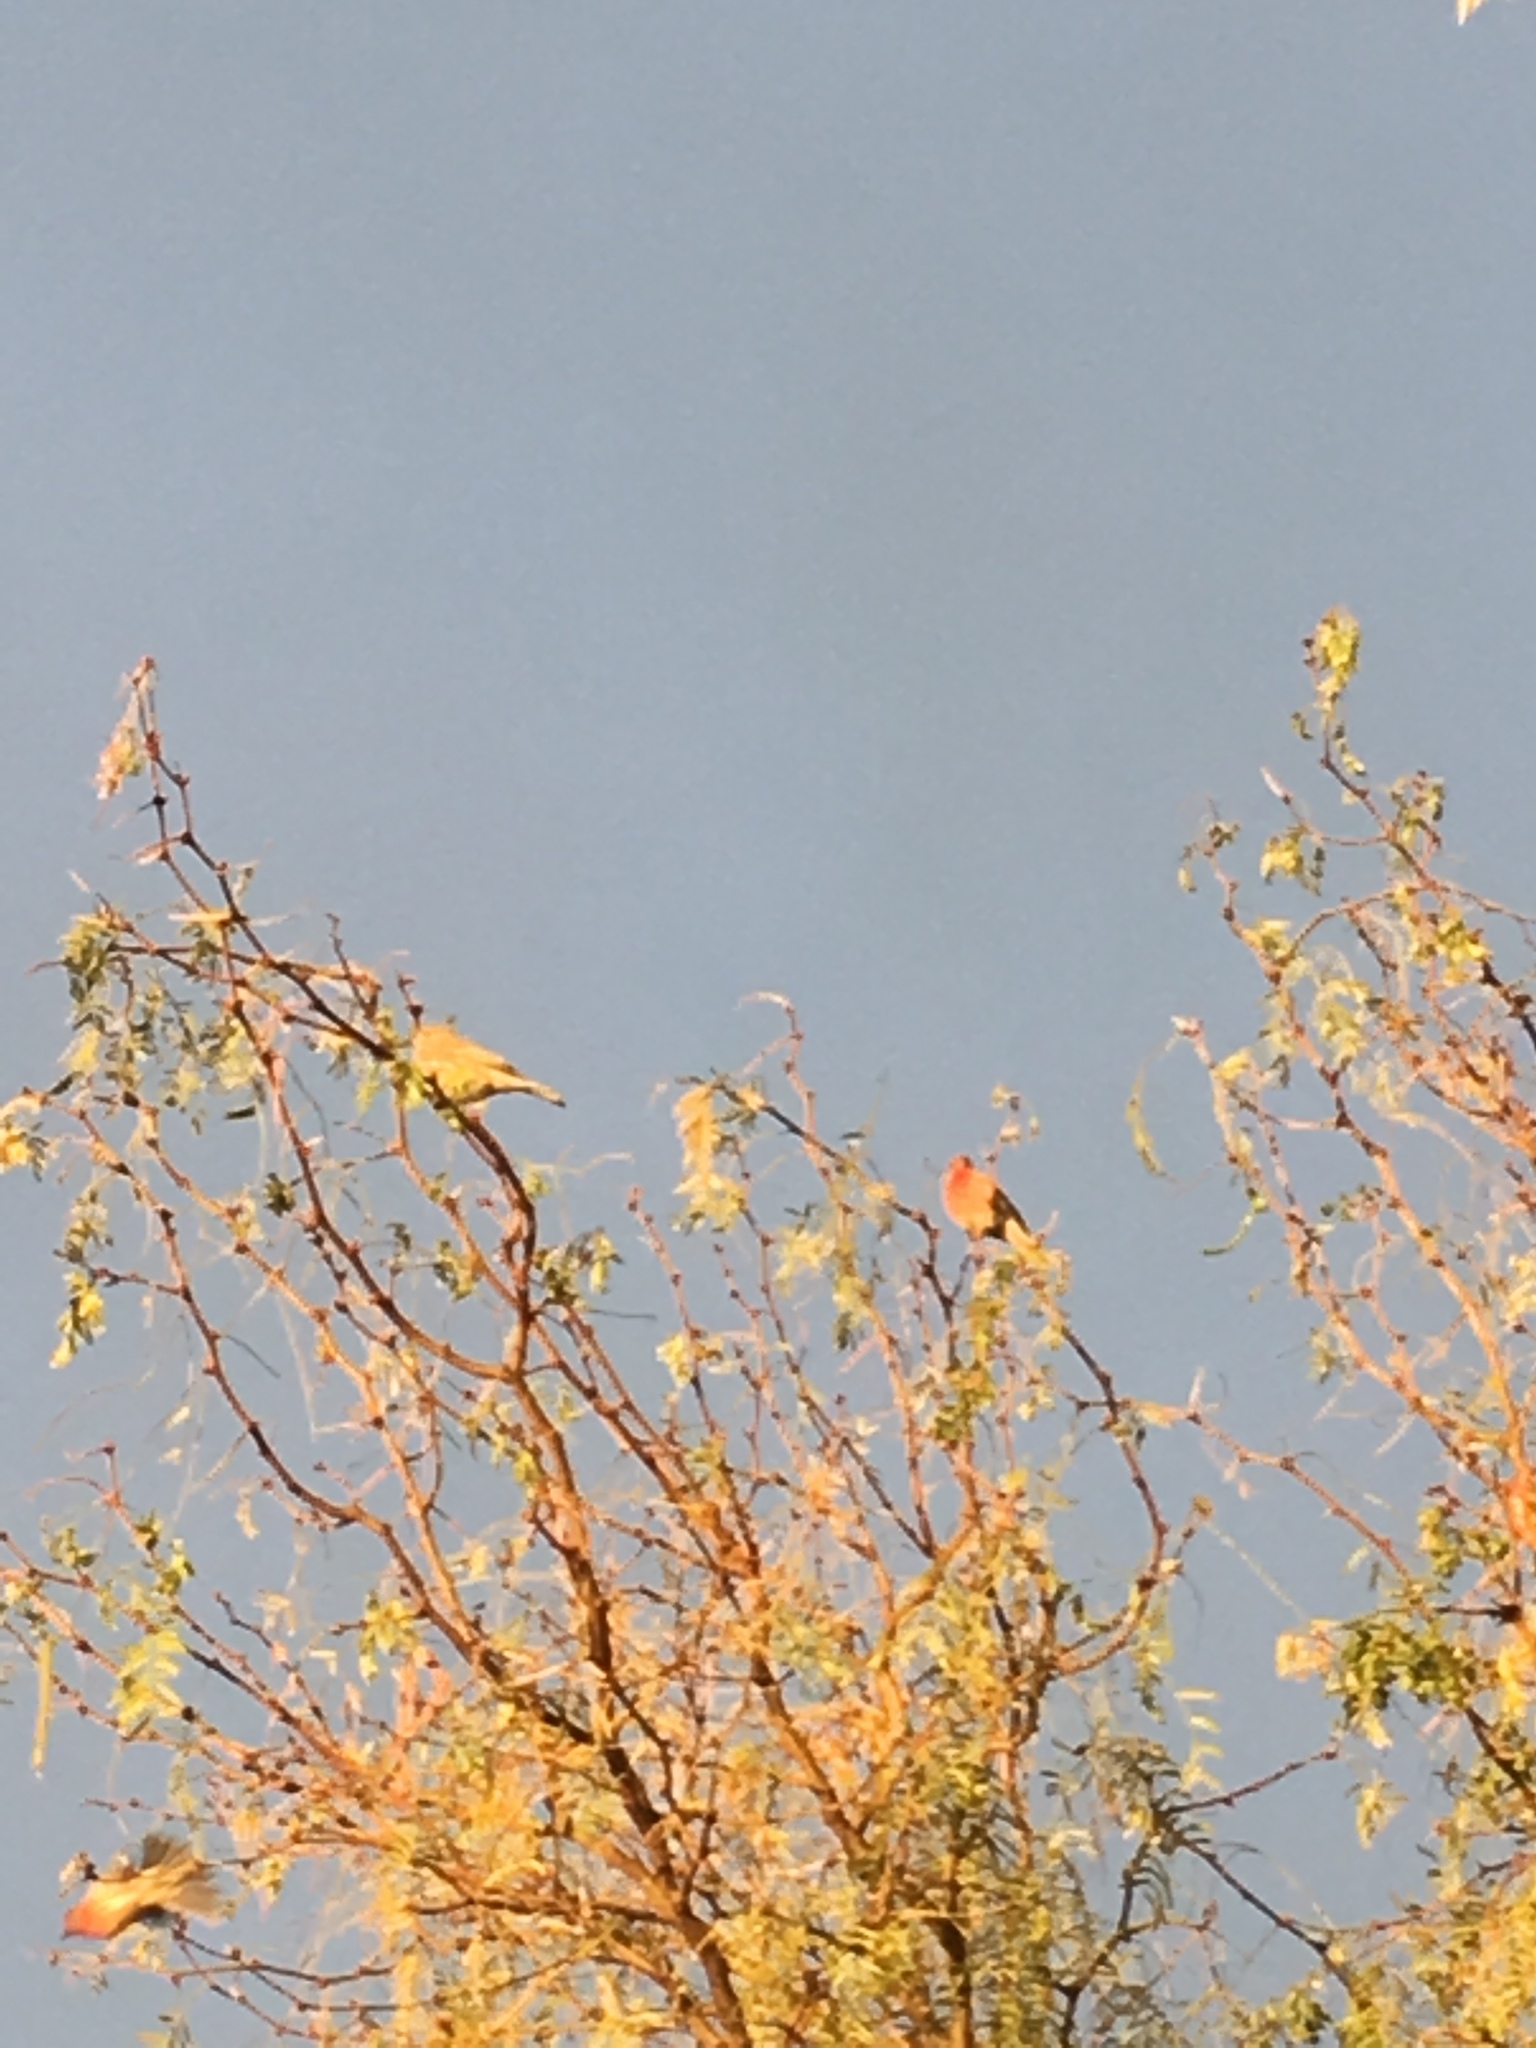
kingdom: Animalia
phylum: Chordata
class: Aves
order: Passeriformes
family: Fringillidae
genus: Haemorhous
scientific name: Haemorhous mexicanus
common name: House finch
